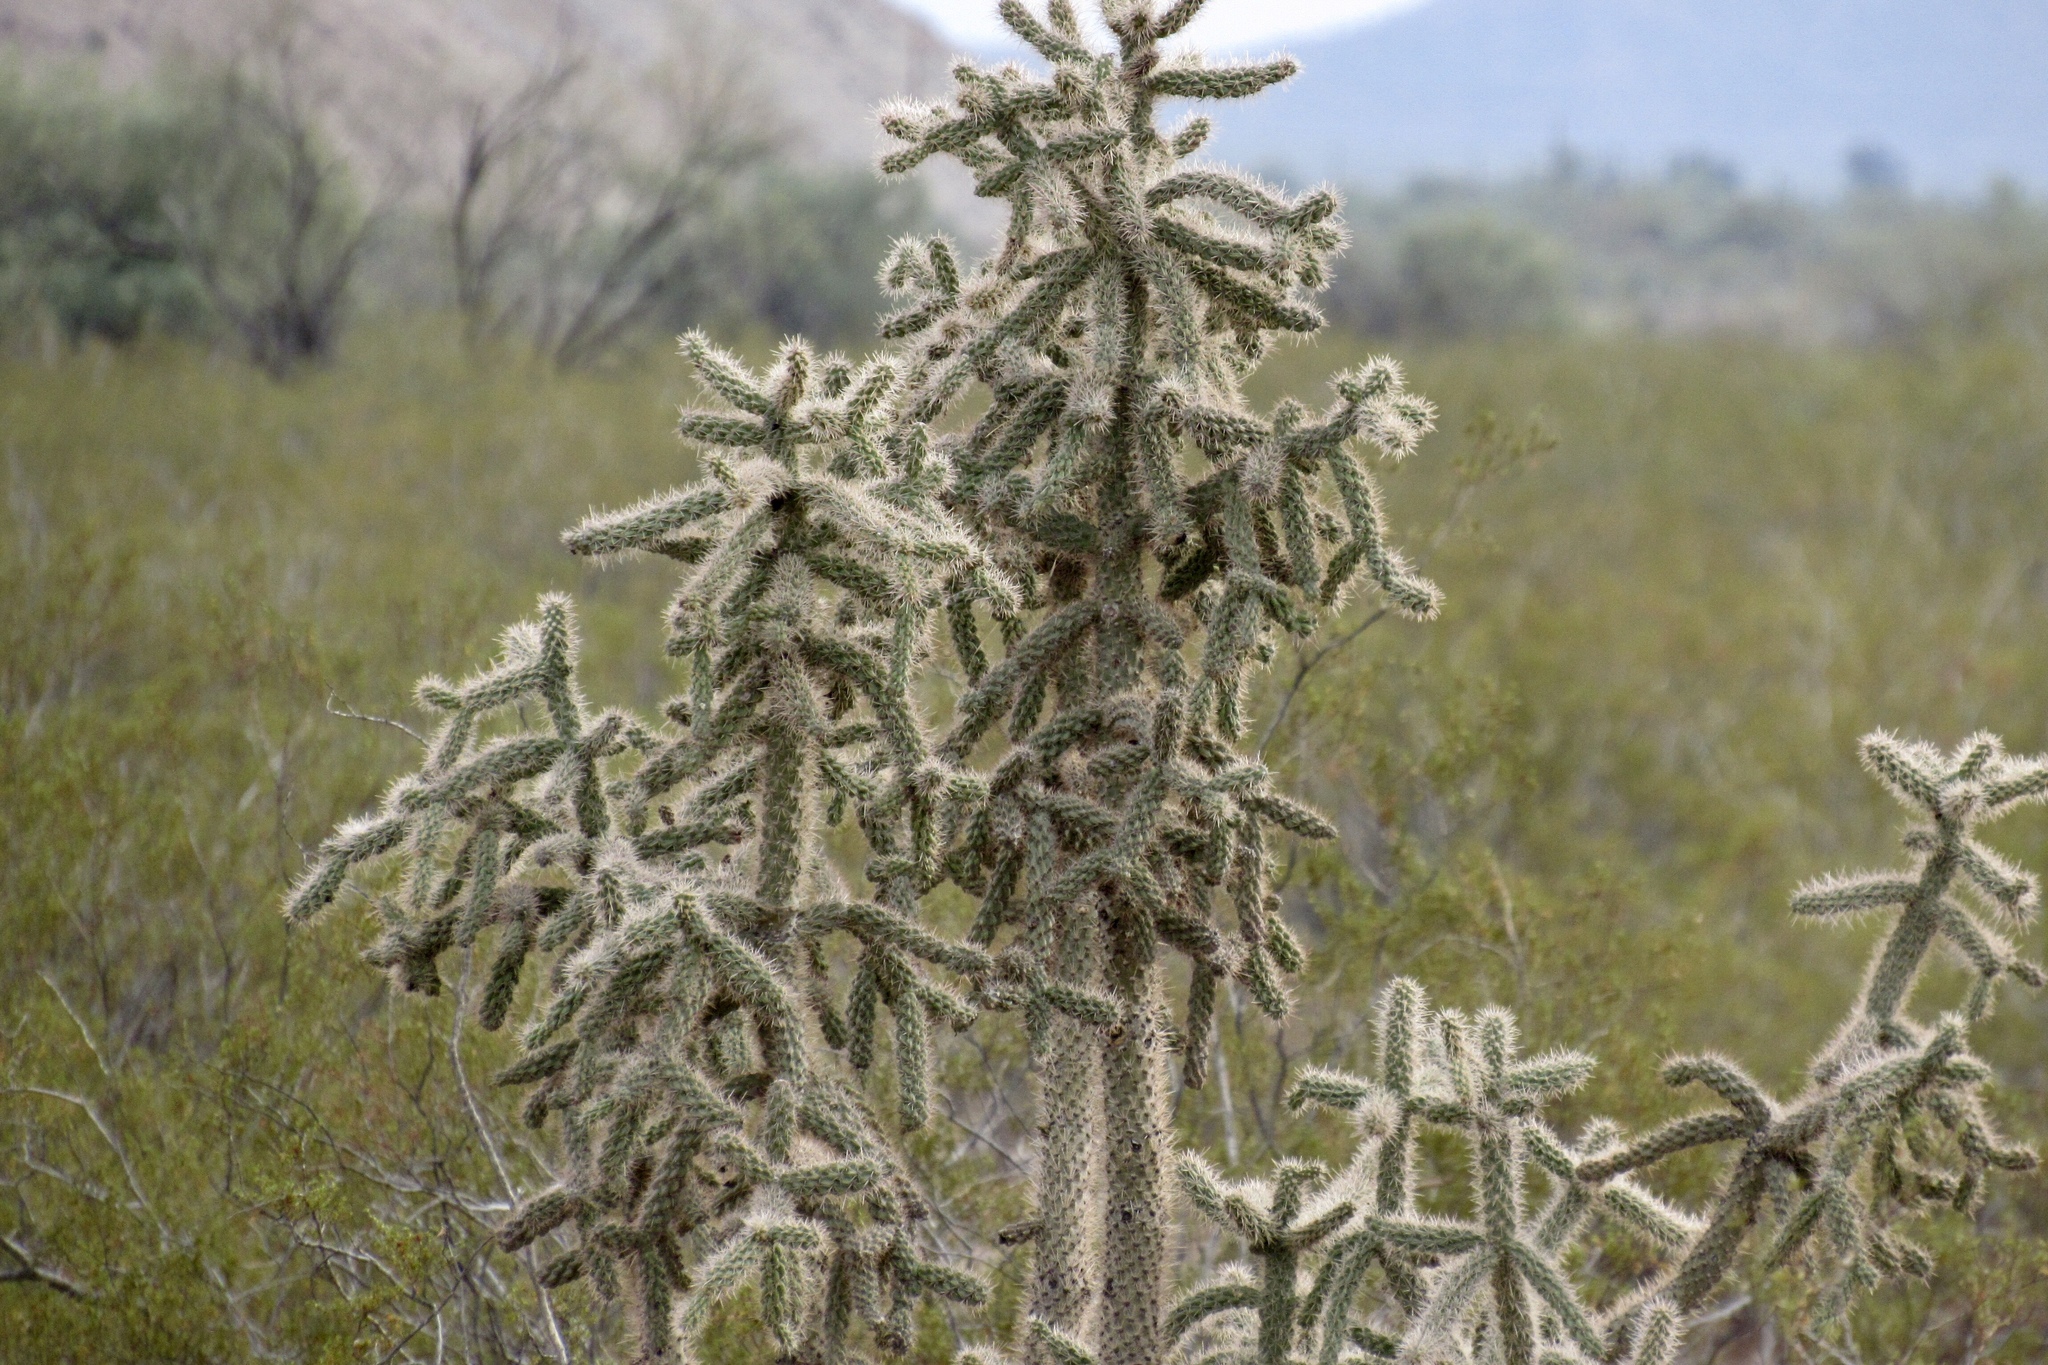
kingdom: Plantae
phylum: Tracheophyta
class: Magnoliopsida
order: Caryophyllales
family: Cactaceae
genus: Cylindropuntia
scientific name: Cylindropuntia imbricata
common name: Candelabrum cactus
